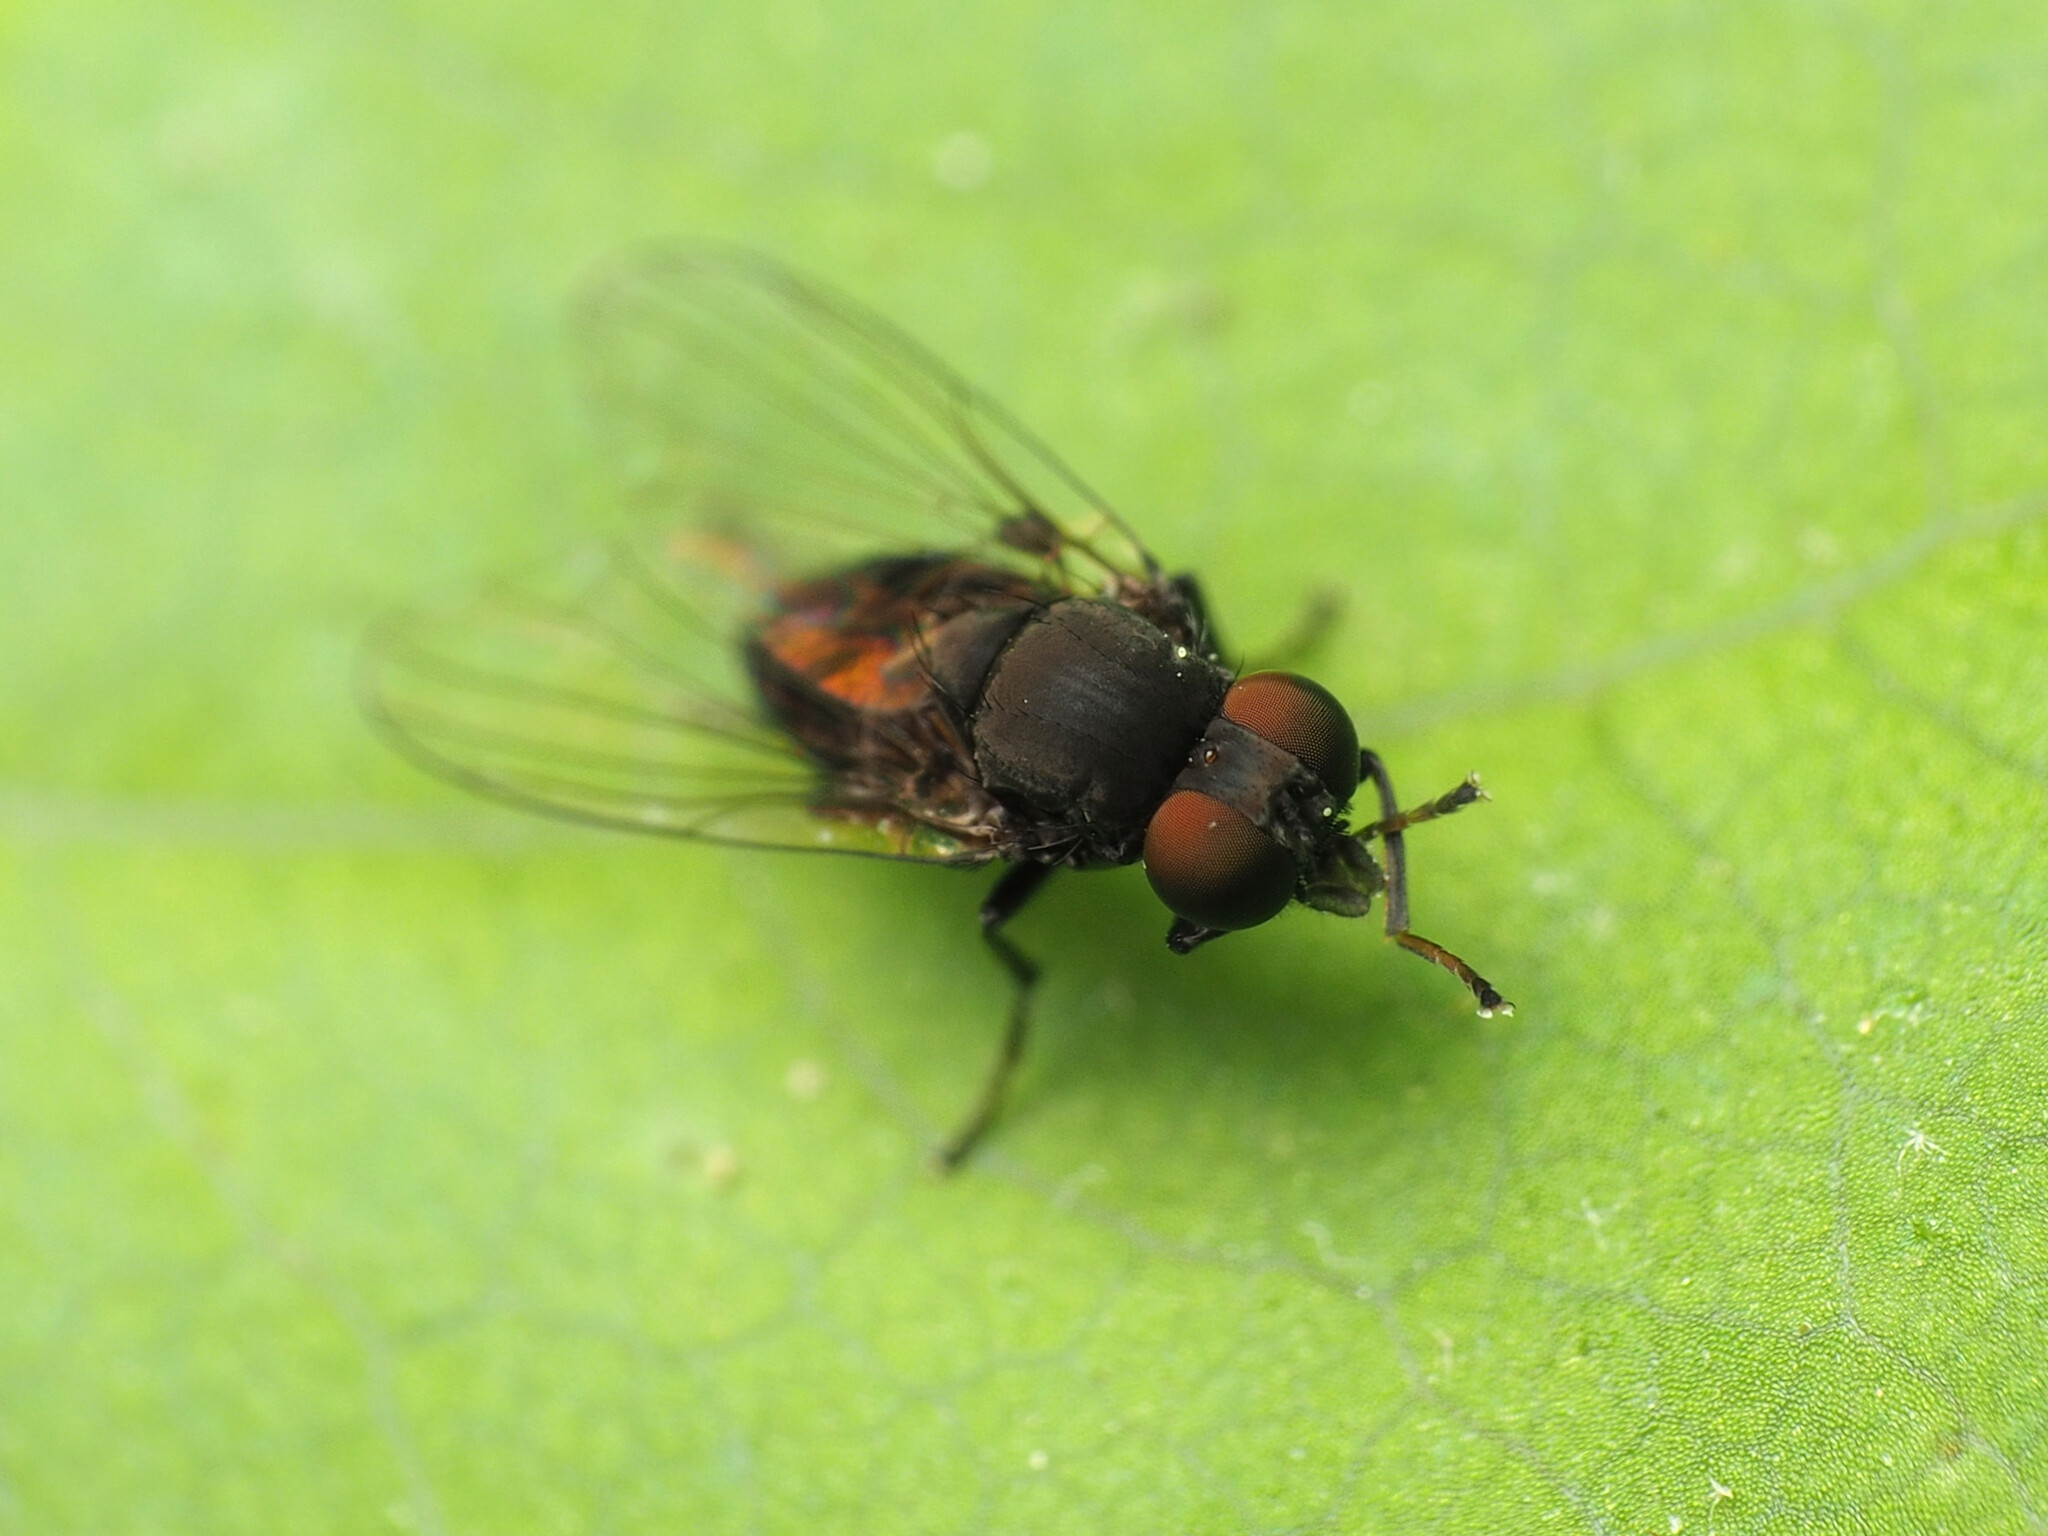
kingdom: Animalia
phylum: Arthropoda
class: Insecta
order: Diptera
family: Platypezidae
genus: Paraplatypeza
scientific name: Paraplatypeza velutina
